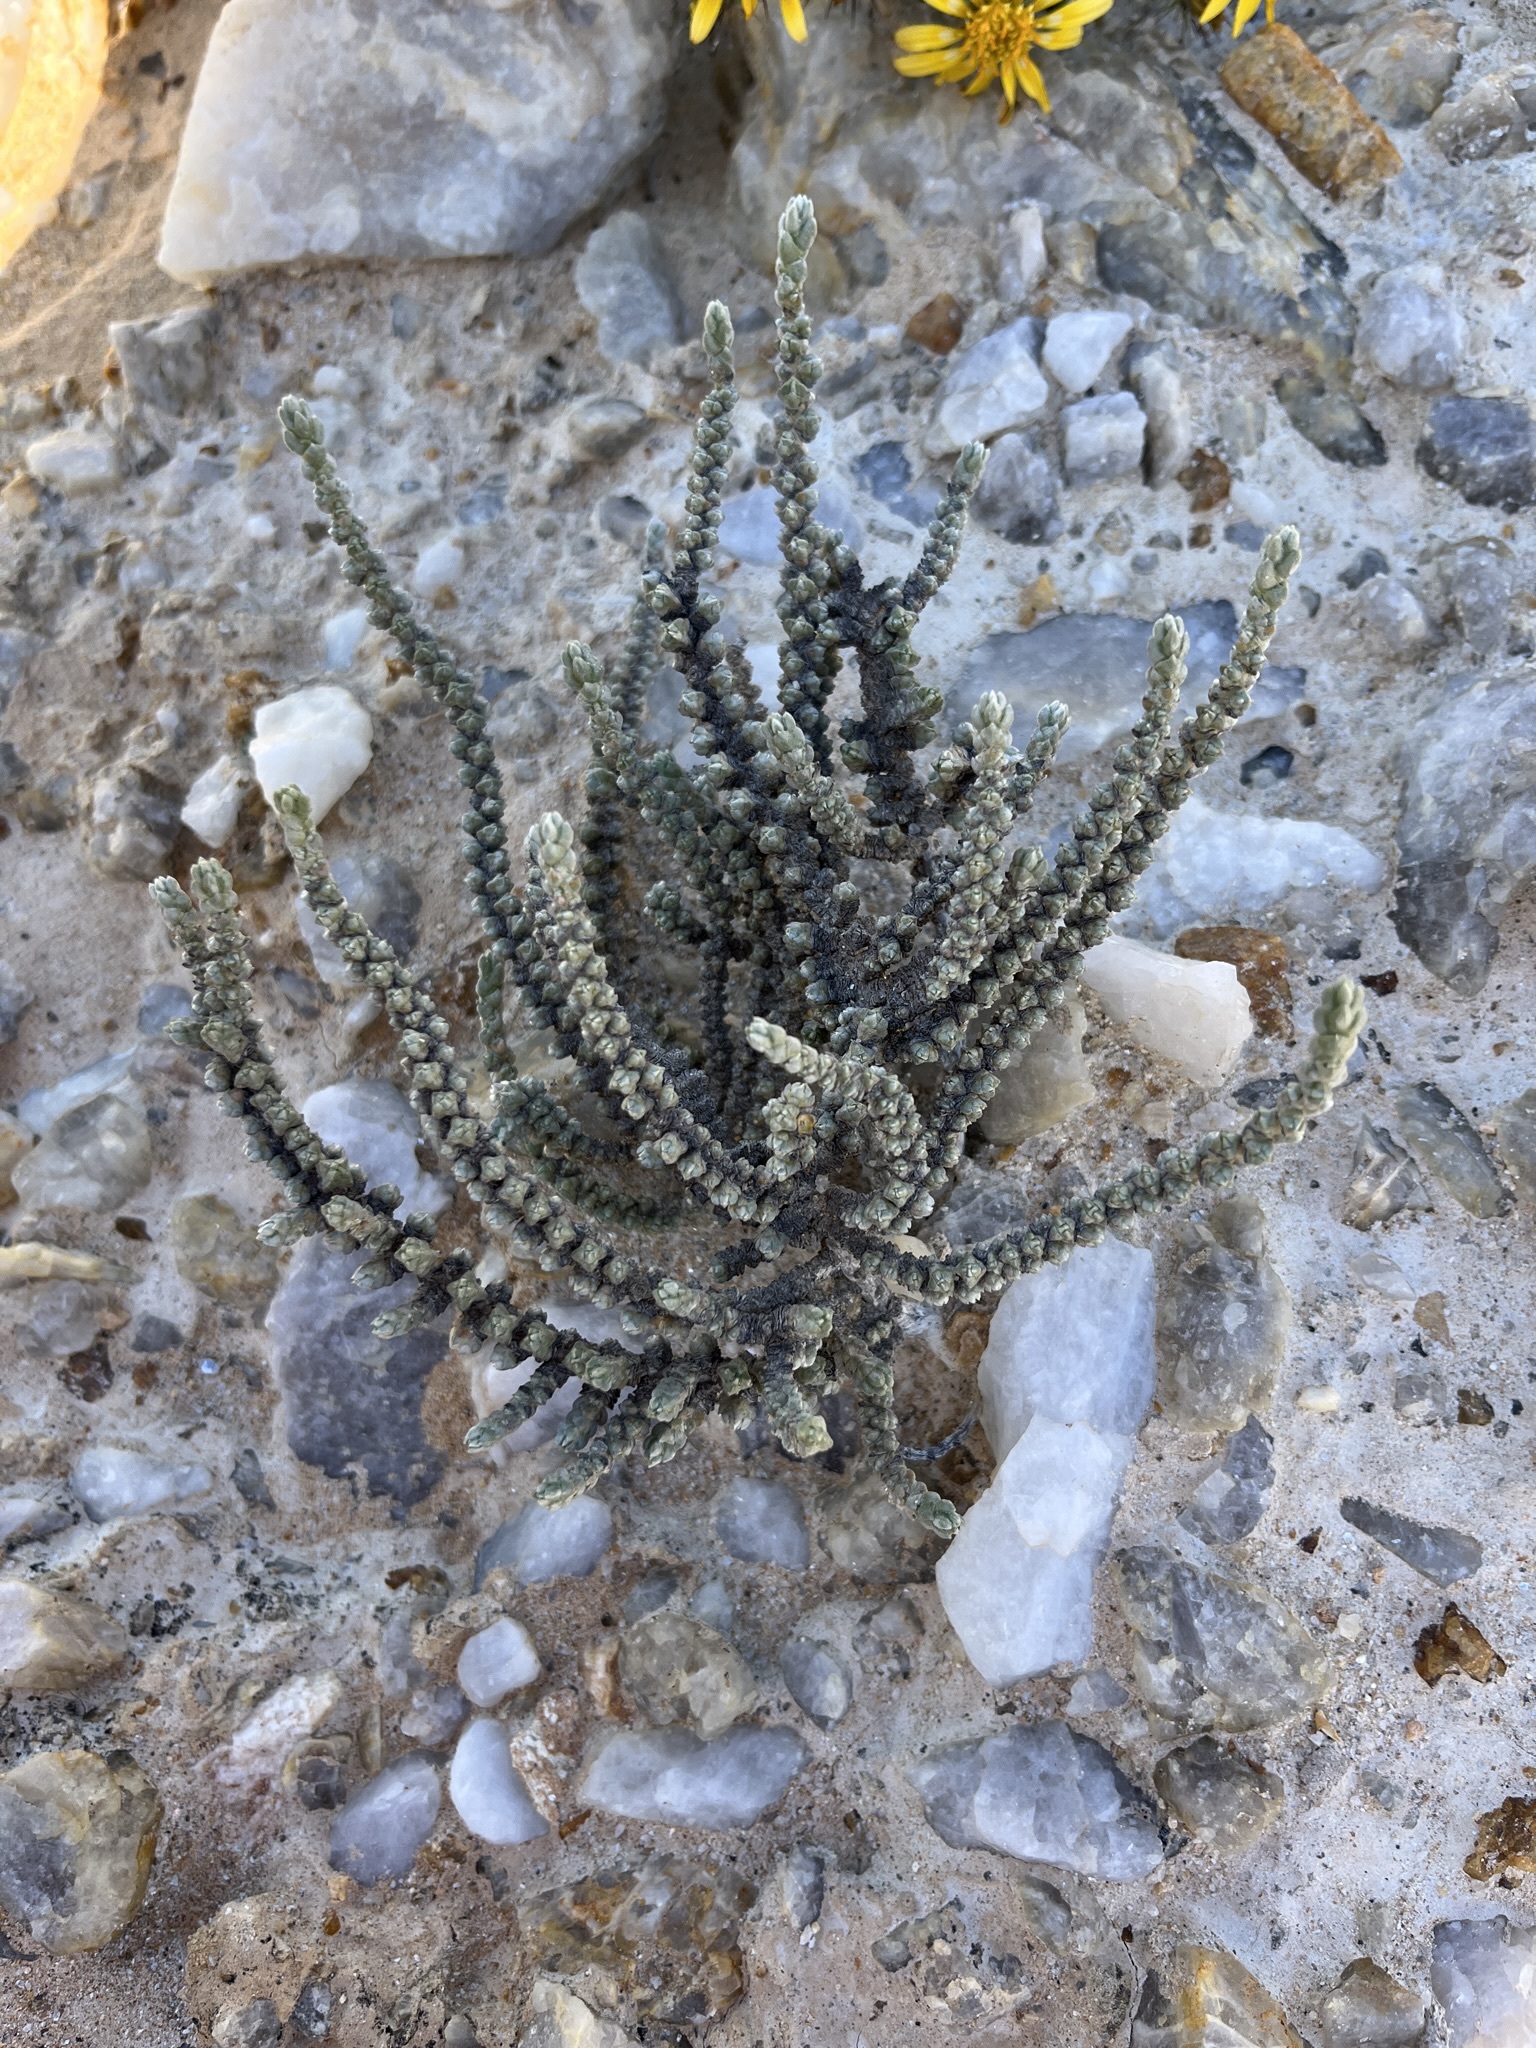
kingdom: Plantae
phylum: Tracheophyta
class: Magnoliopsida
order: Saxifragales
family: Crassulaceae
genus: Crassula
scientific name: Crassula muscosa
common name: Toy-cypress
